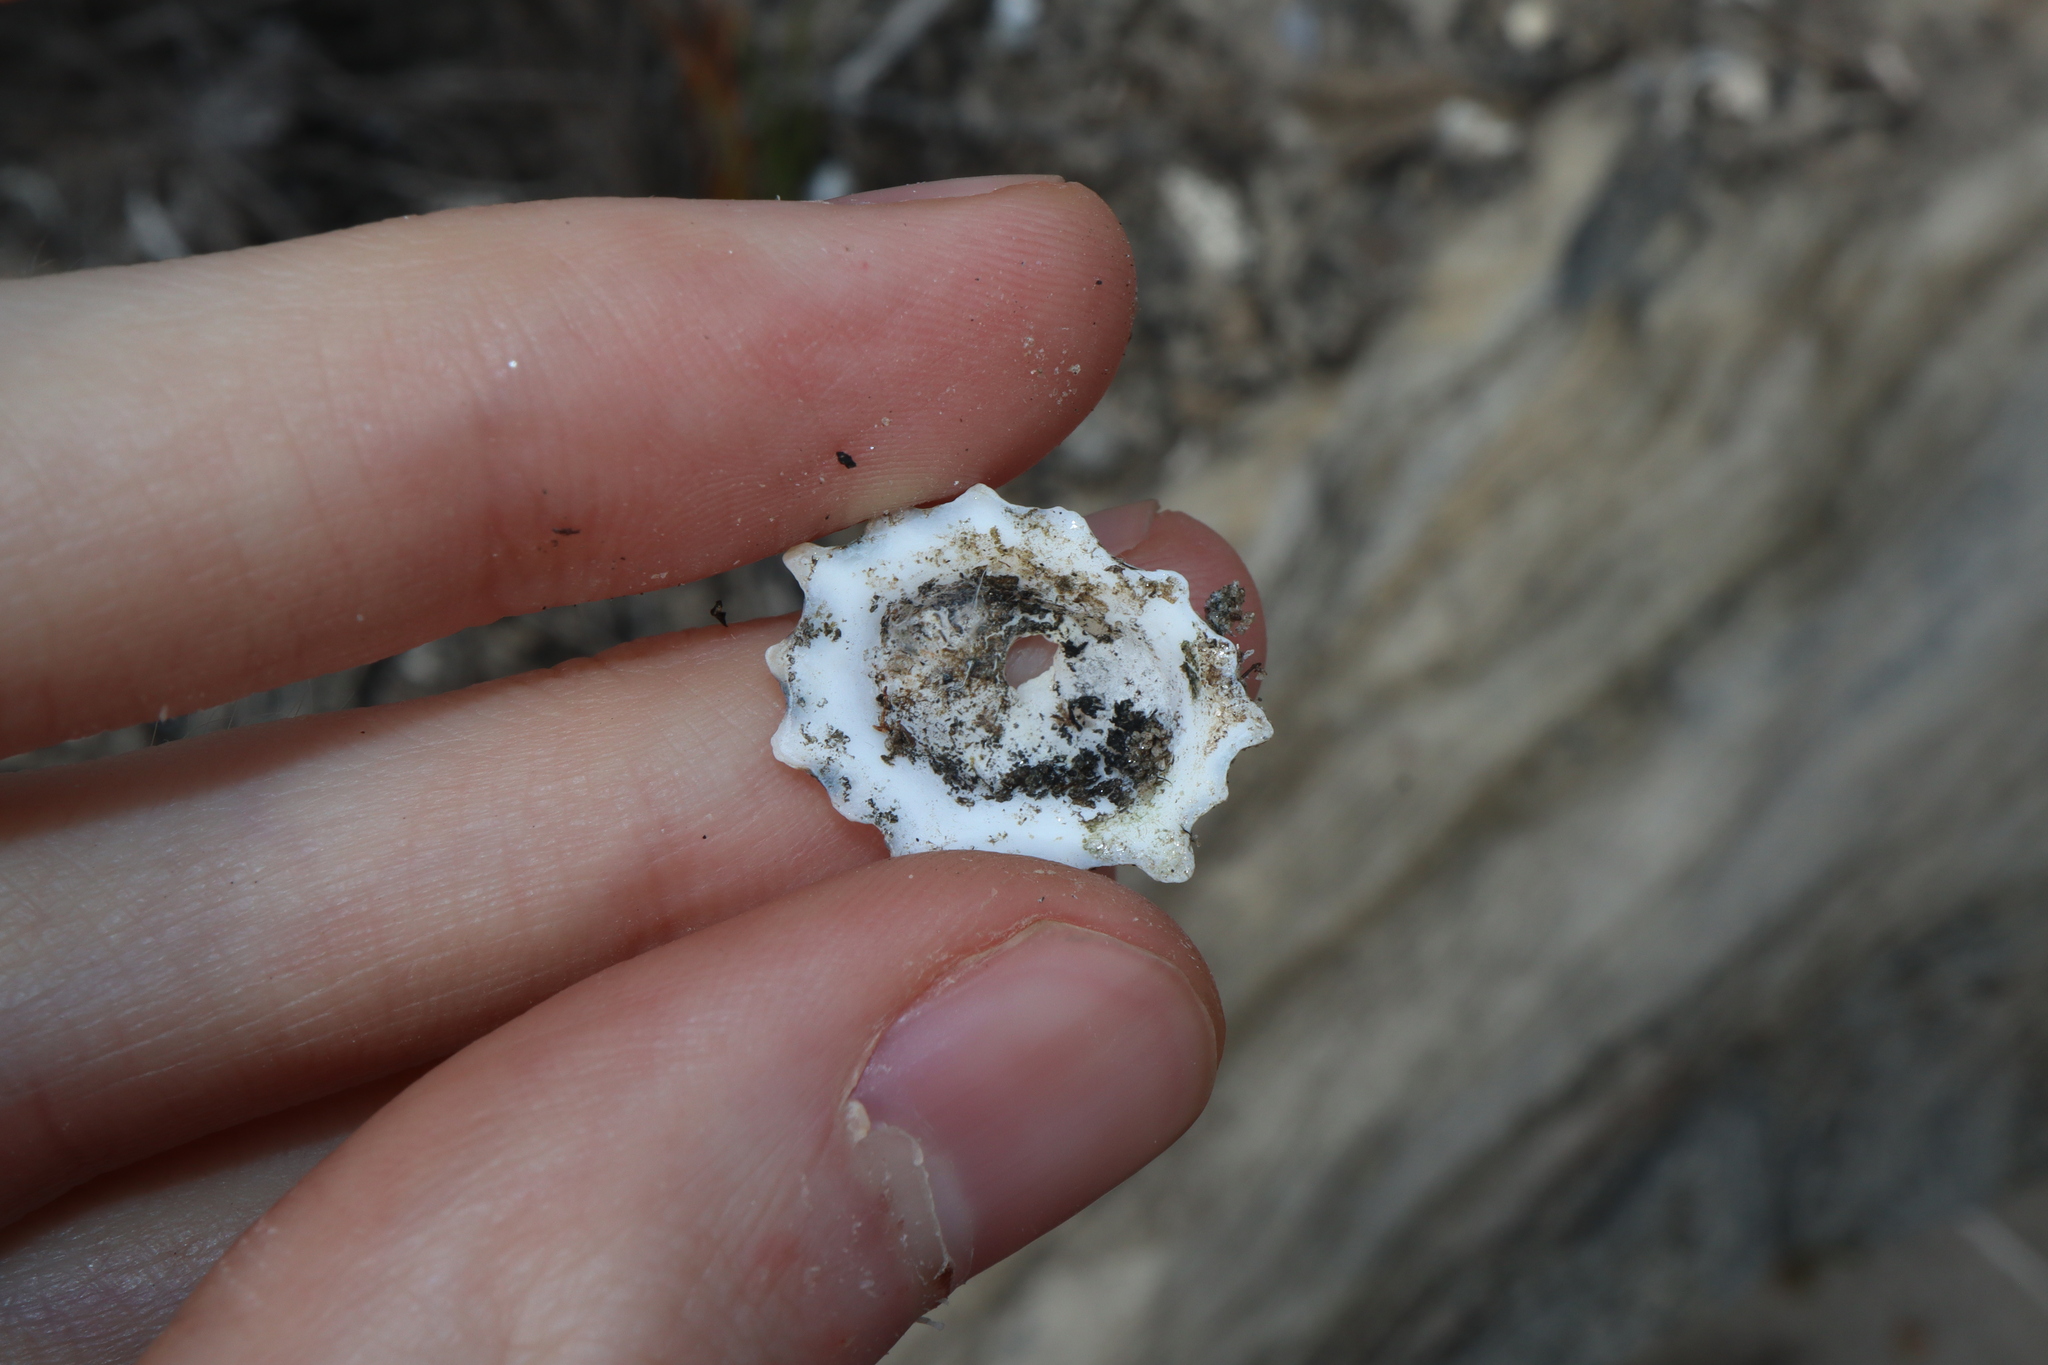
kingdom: Animalia
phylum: Mollusca
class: Gastropoda
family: Lottiidae
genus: Patelloida
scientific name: Patelloida alticostata
